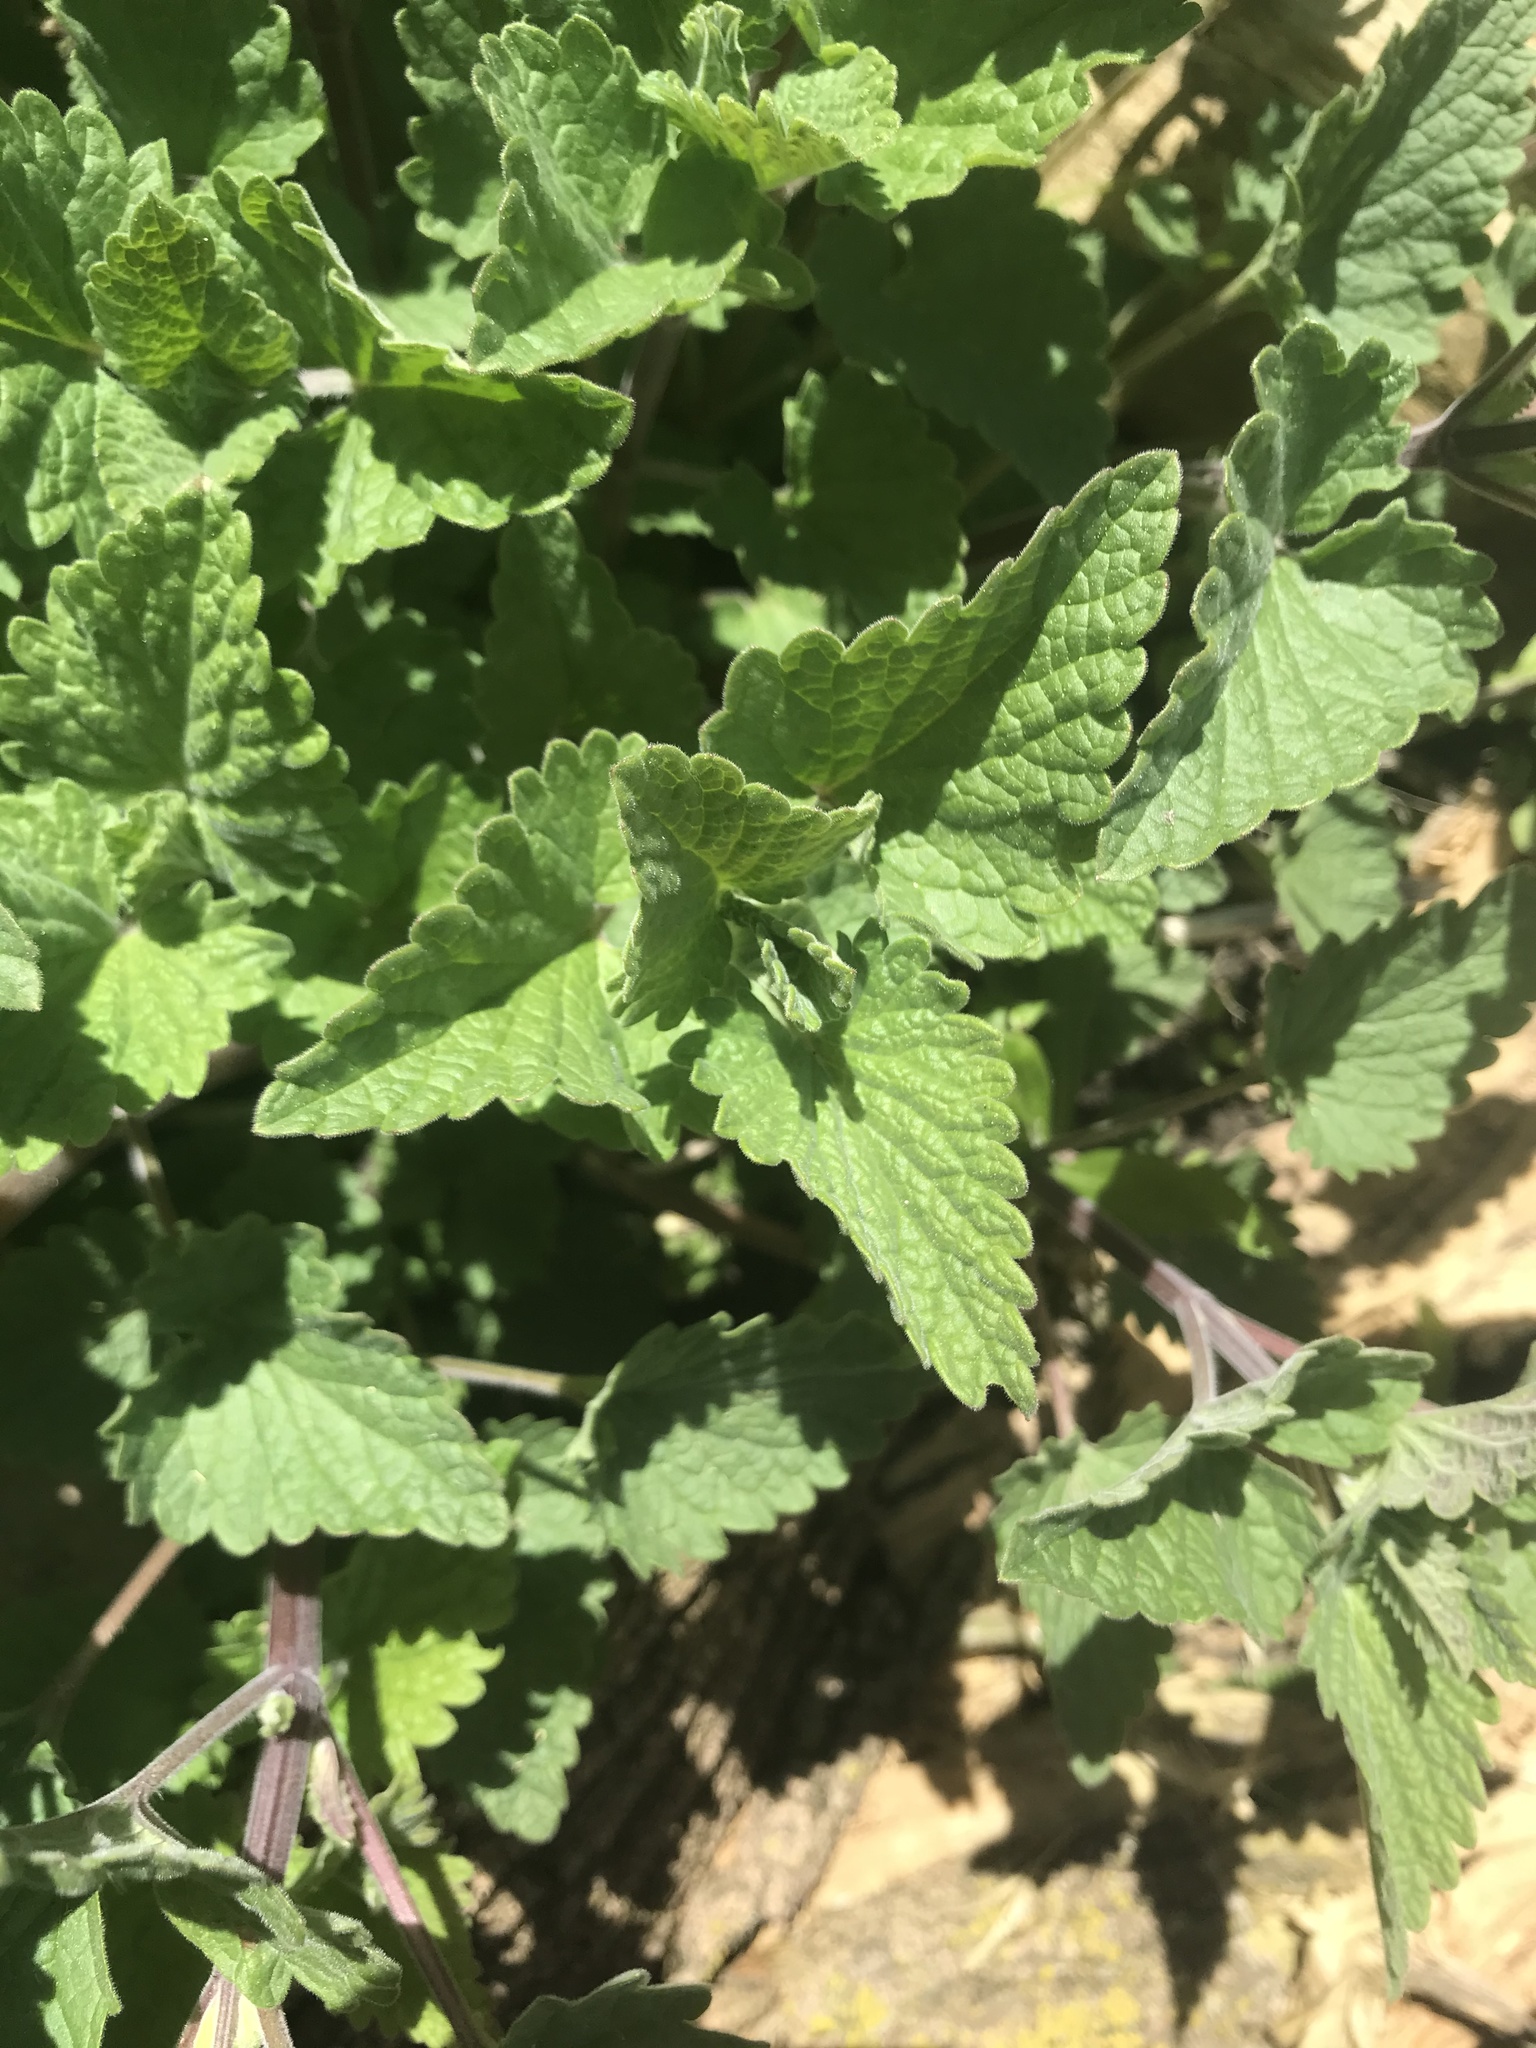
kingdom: Plantae
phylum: Tracheophyta
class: Magnoliopsida
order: Lamiales
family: Lamiaceae
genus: Nepeta
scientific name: Nepeta cataria
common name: Catnip
